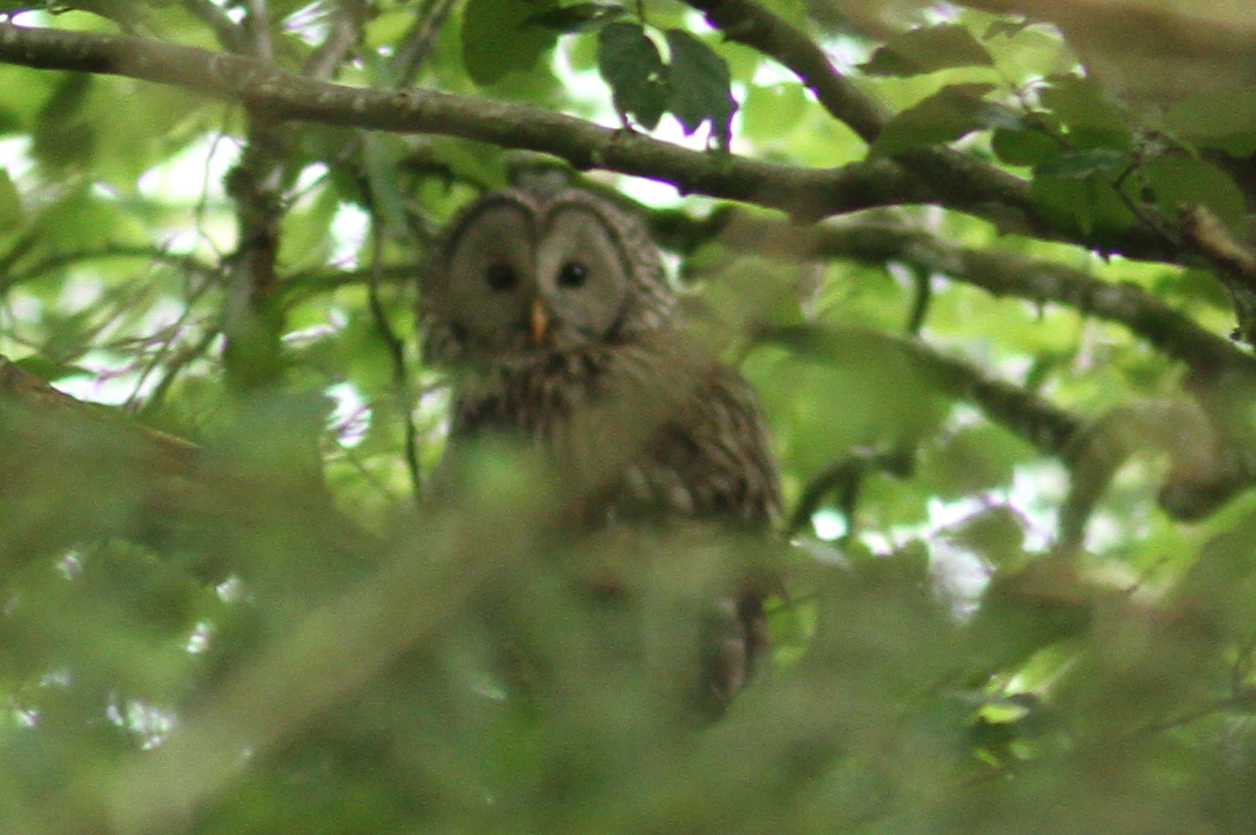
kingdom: Animalia
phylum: Chordata
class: Aves
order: Strigiformes
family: Strigidae
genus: Strix
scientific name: Strix uralensis
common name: Ural owl
